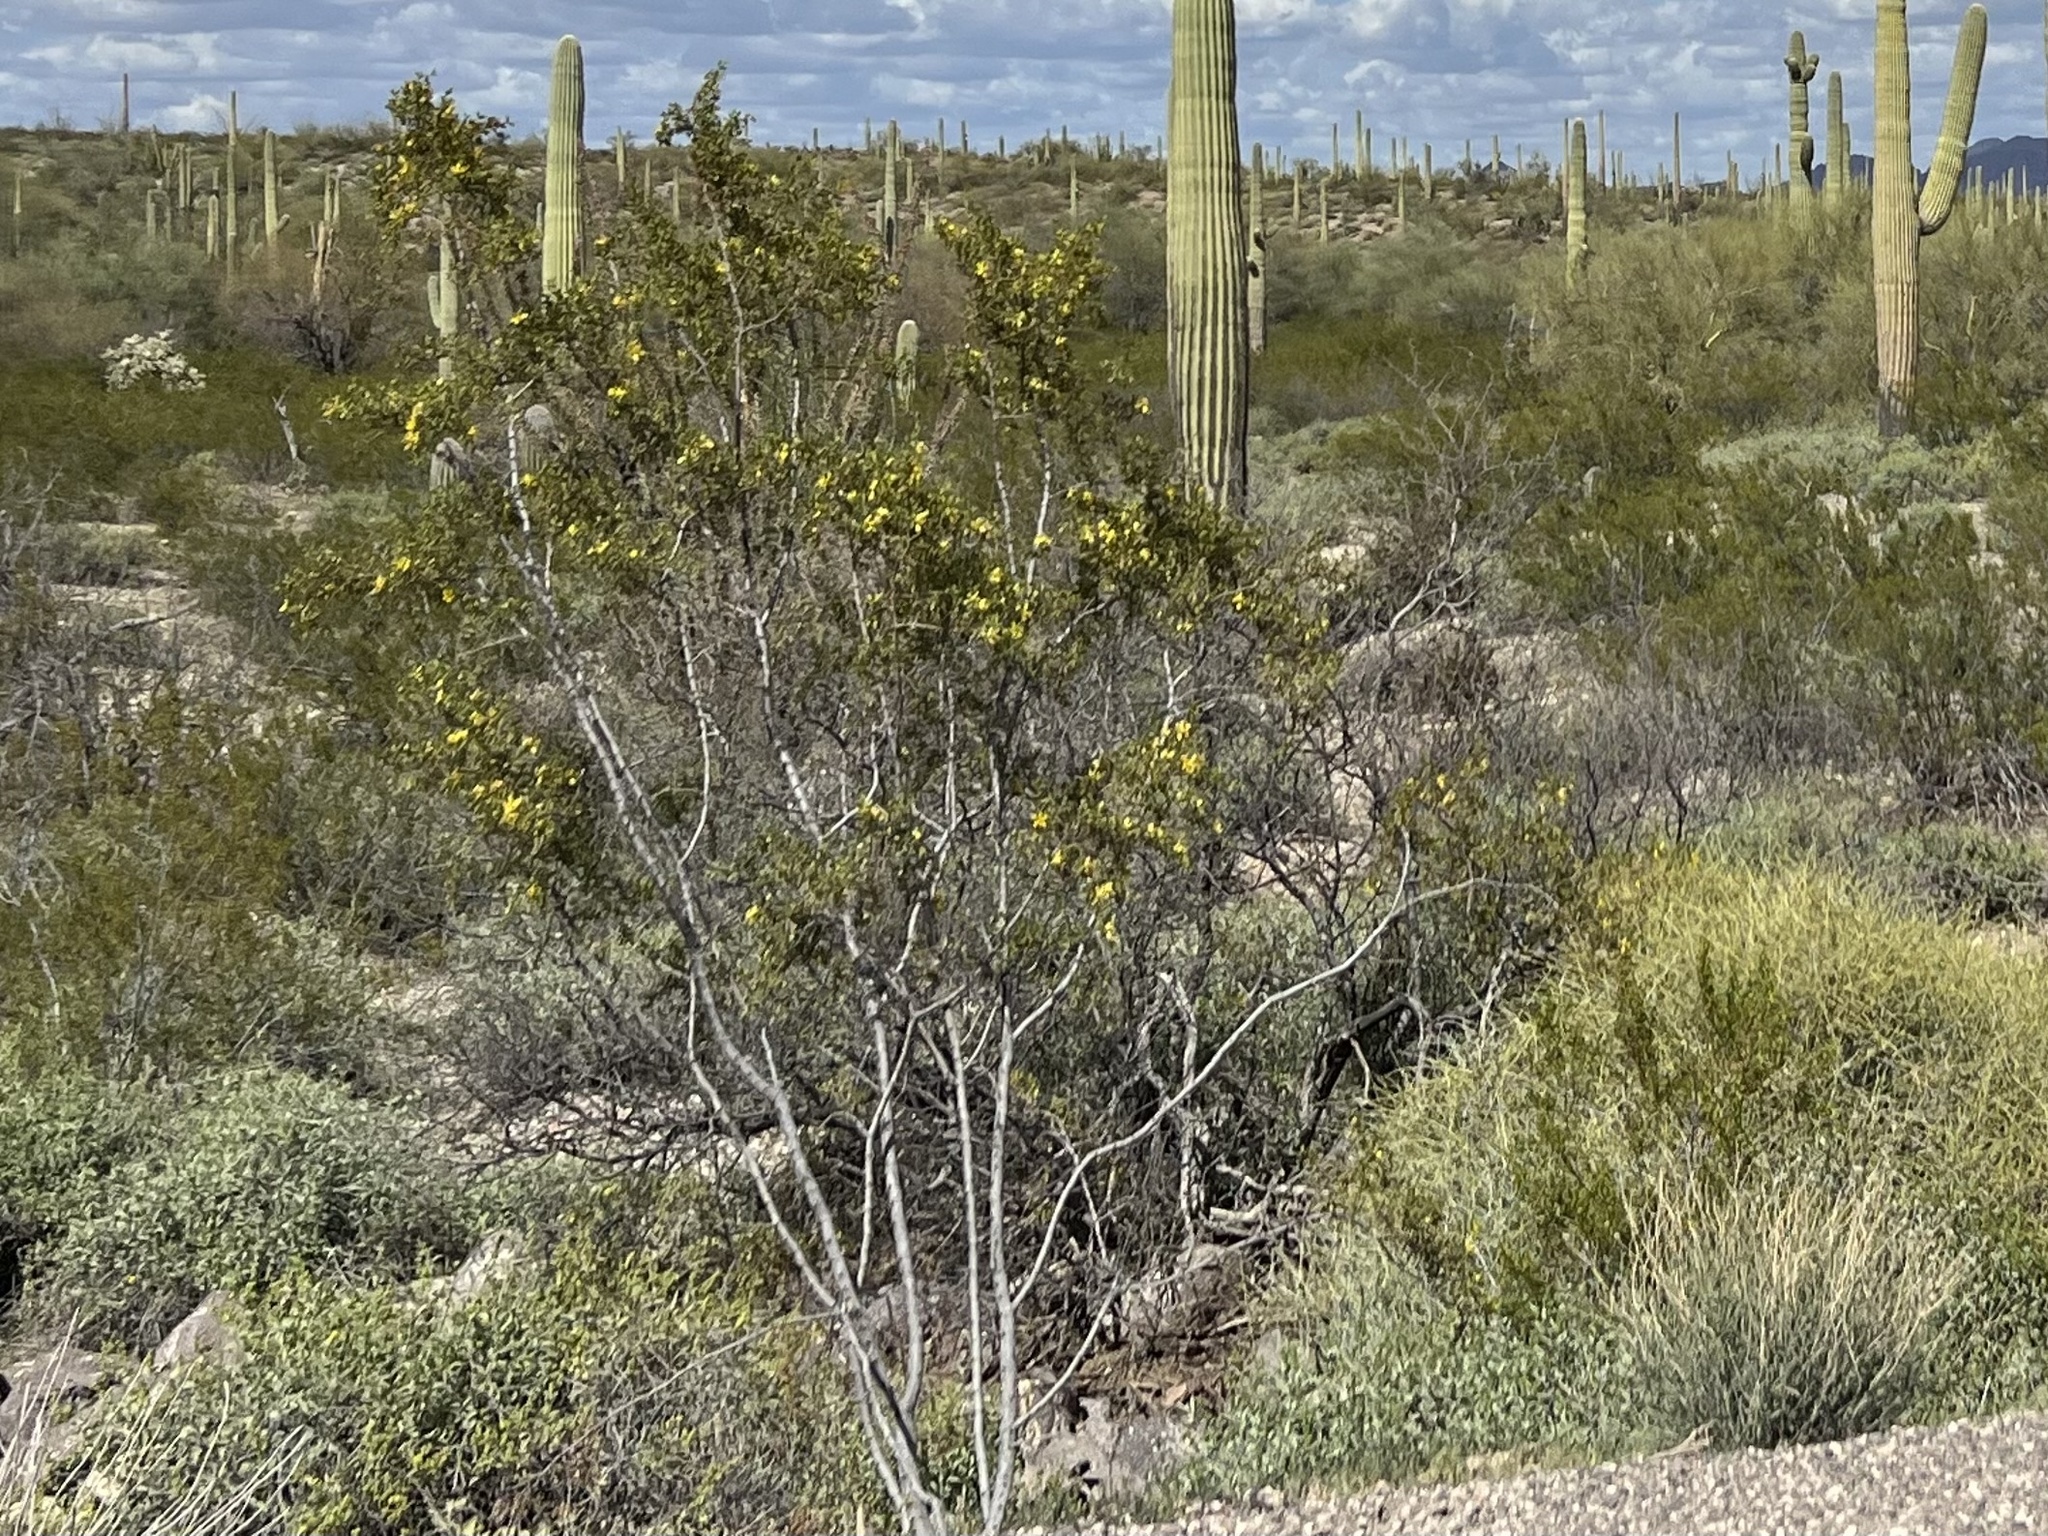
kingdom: Plantae
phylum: Tracheophyta
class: Magnoliopsida
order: Zygophyllales
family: Zygophyllaceae
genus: Larrea
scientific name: Larrea tridentata
